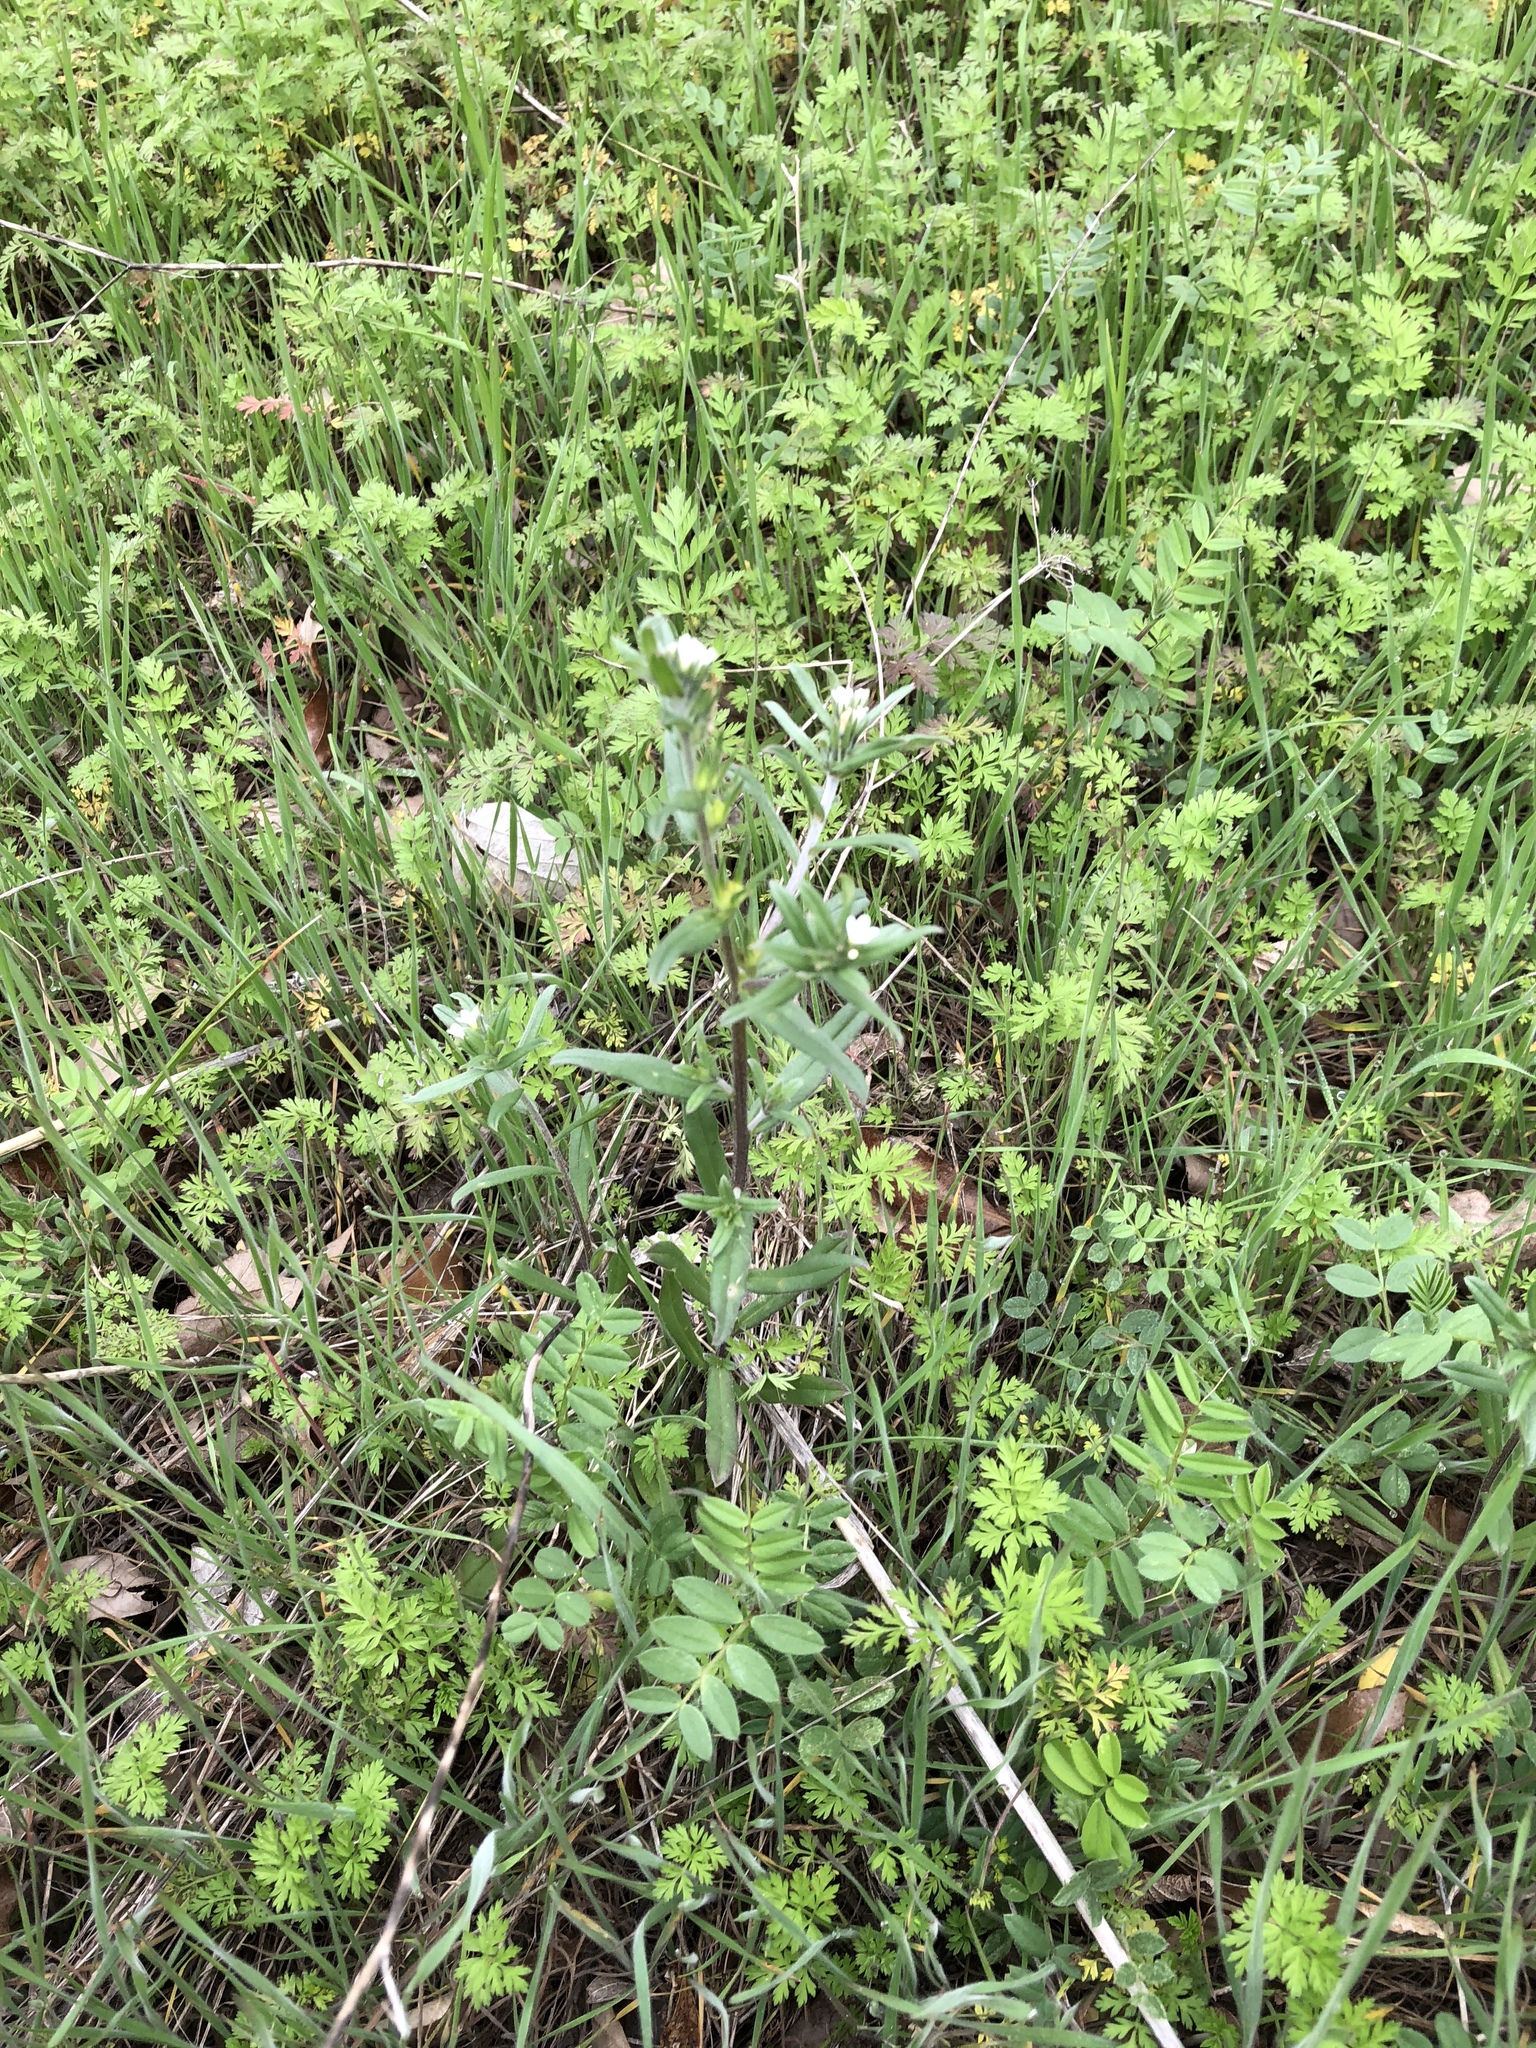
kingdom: Plantae
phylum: Tracheophyta
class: Magnoliopsida
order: Boraginales
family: Boraginaceae
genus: Buglossoides
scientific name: Buglossoides arvensis
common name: Corn gromwell
